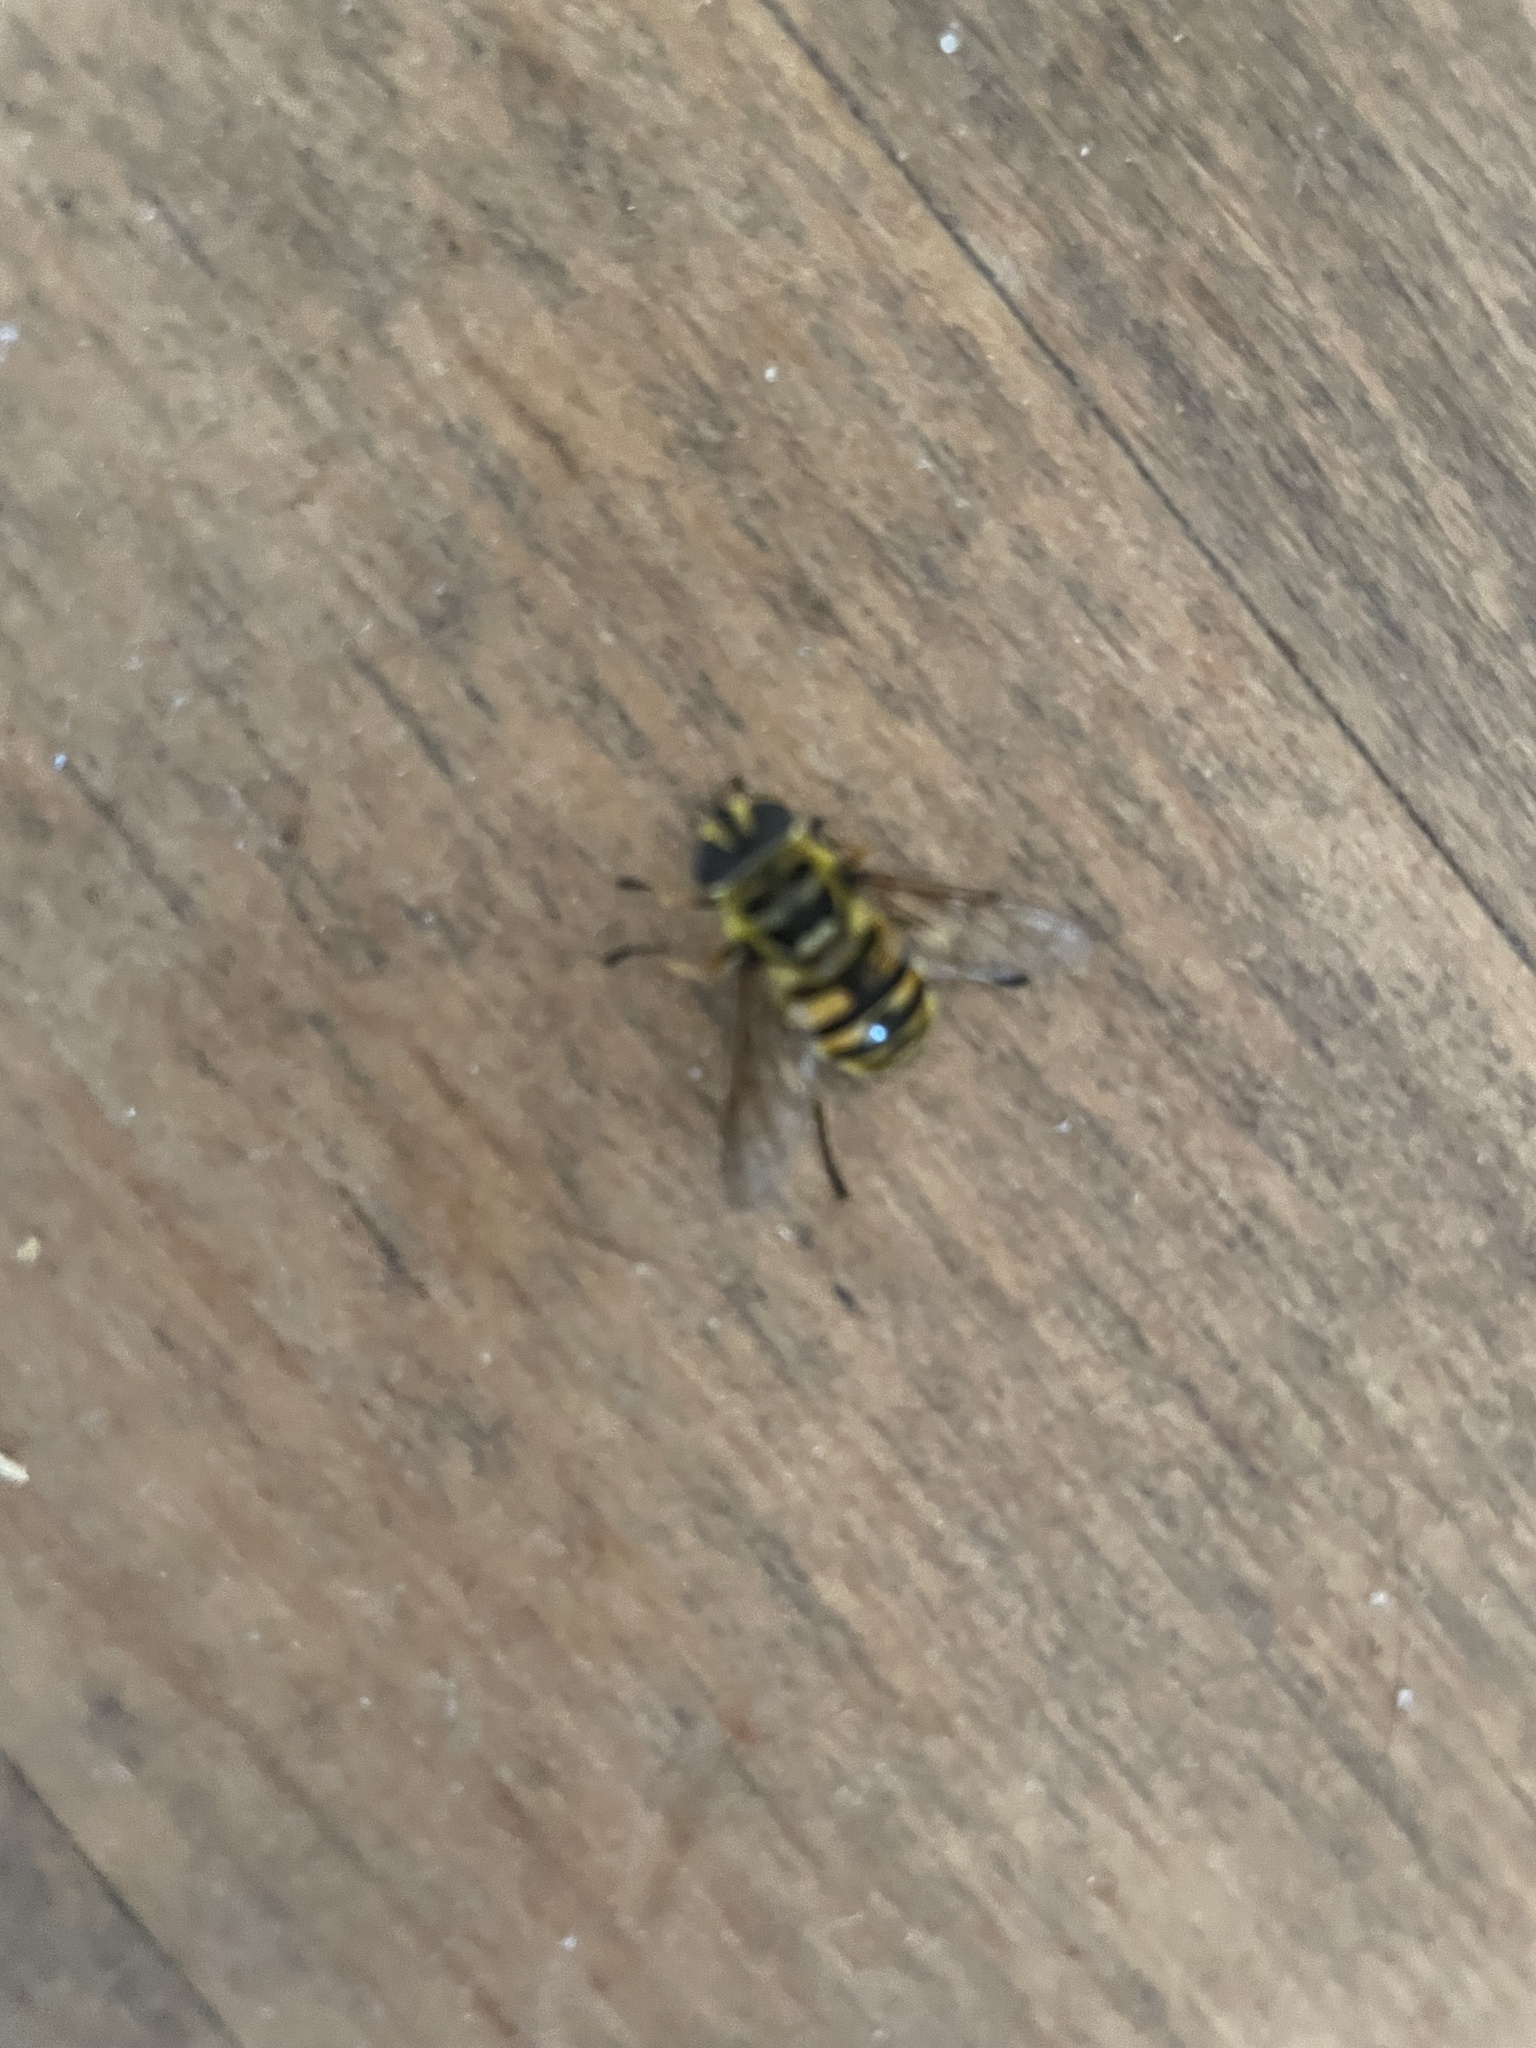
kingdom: Animalia
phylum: Arthropoda
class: Insecta
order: Diptera
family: Syrphidae
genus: Myathropa
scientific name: Myathropa florea
